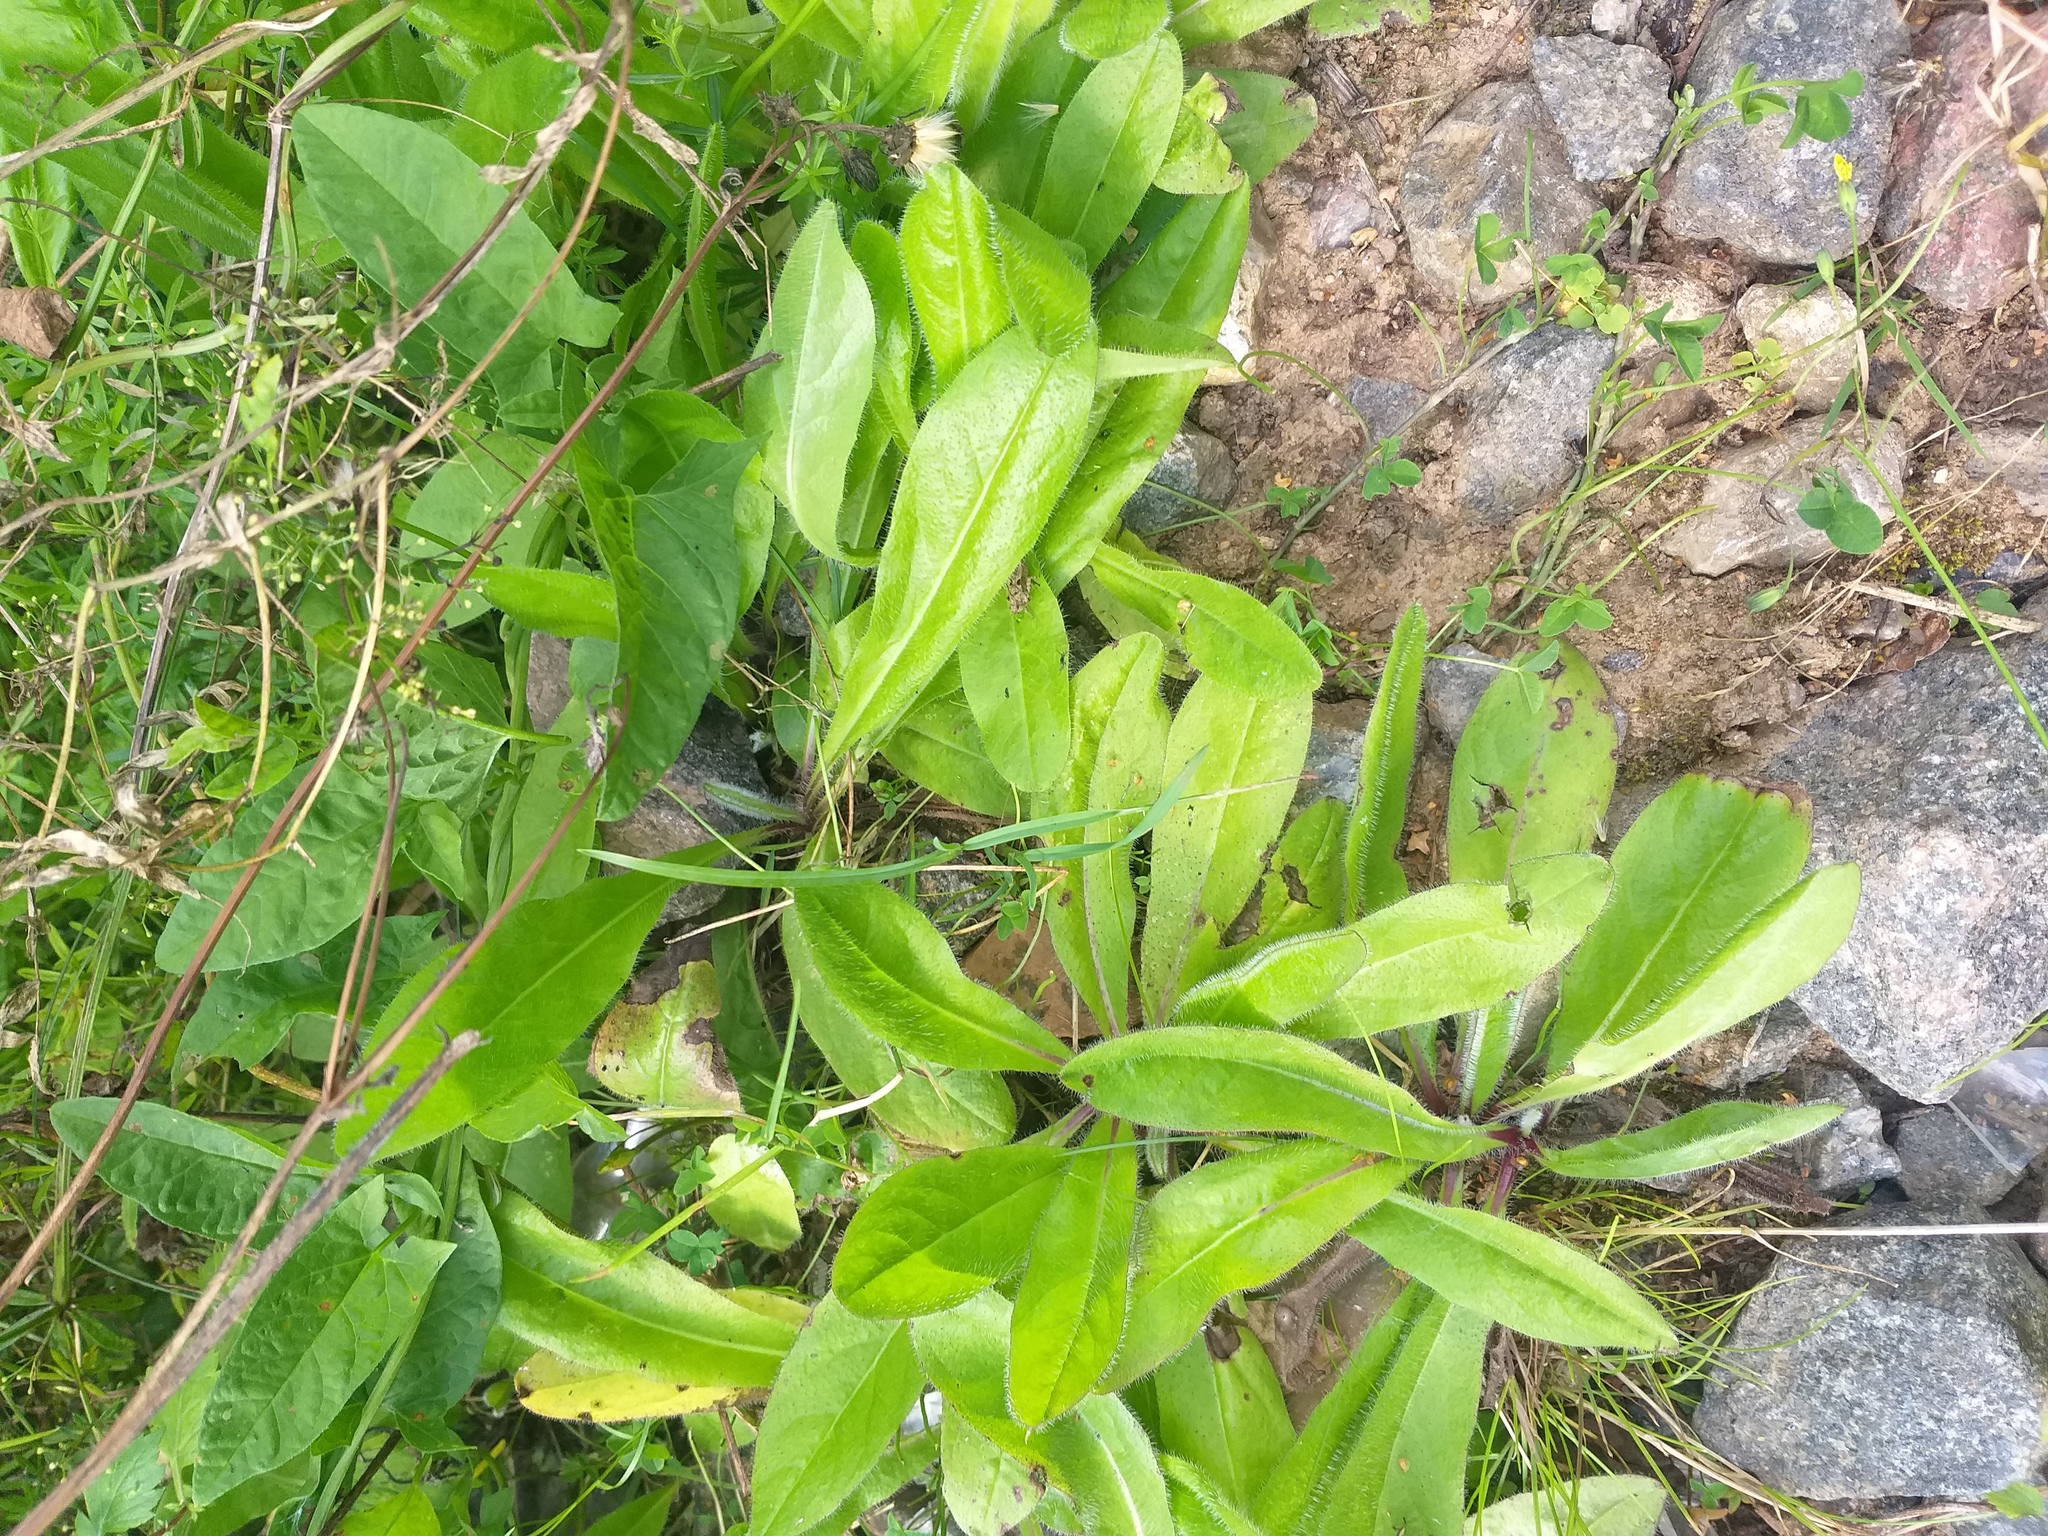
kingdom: Plantae
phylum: Tracheophyta
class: Magnoliopsida
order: Asterales
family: Asteraceae
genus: Pilosella
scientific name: Pilosella onegensis
